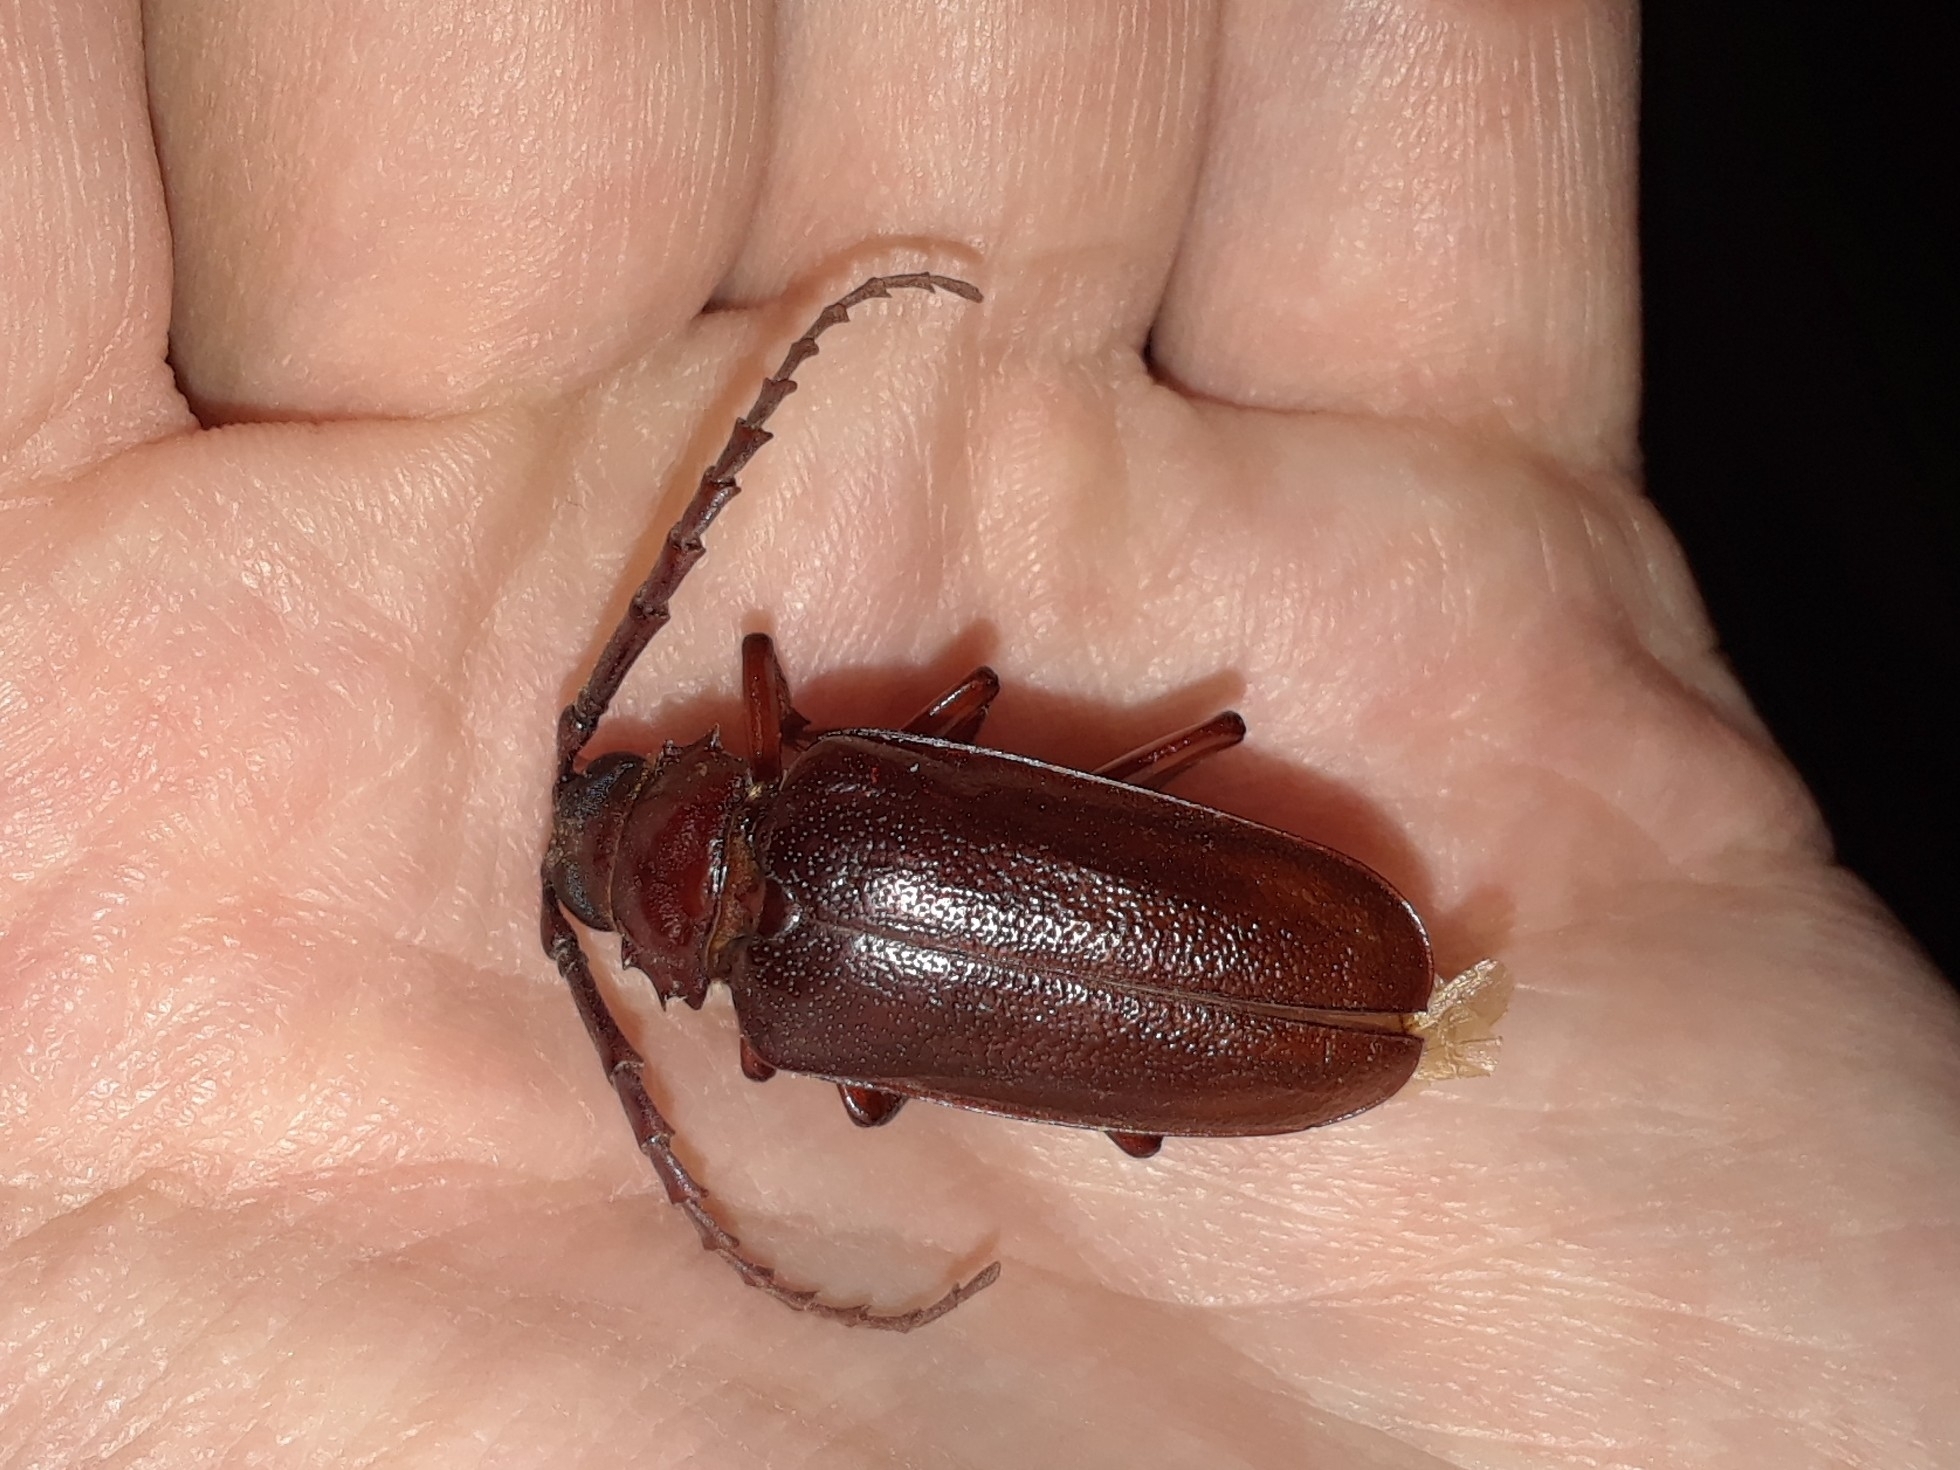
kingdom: Animalia
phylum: Arthropoda
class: Insecta
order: Coleoptera
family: Cerambycidae
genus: Prionus
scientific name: Prionus pocularis
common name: Tooth-necked longhorn beetle
